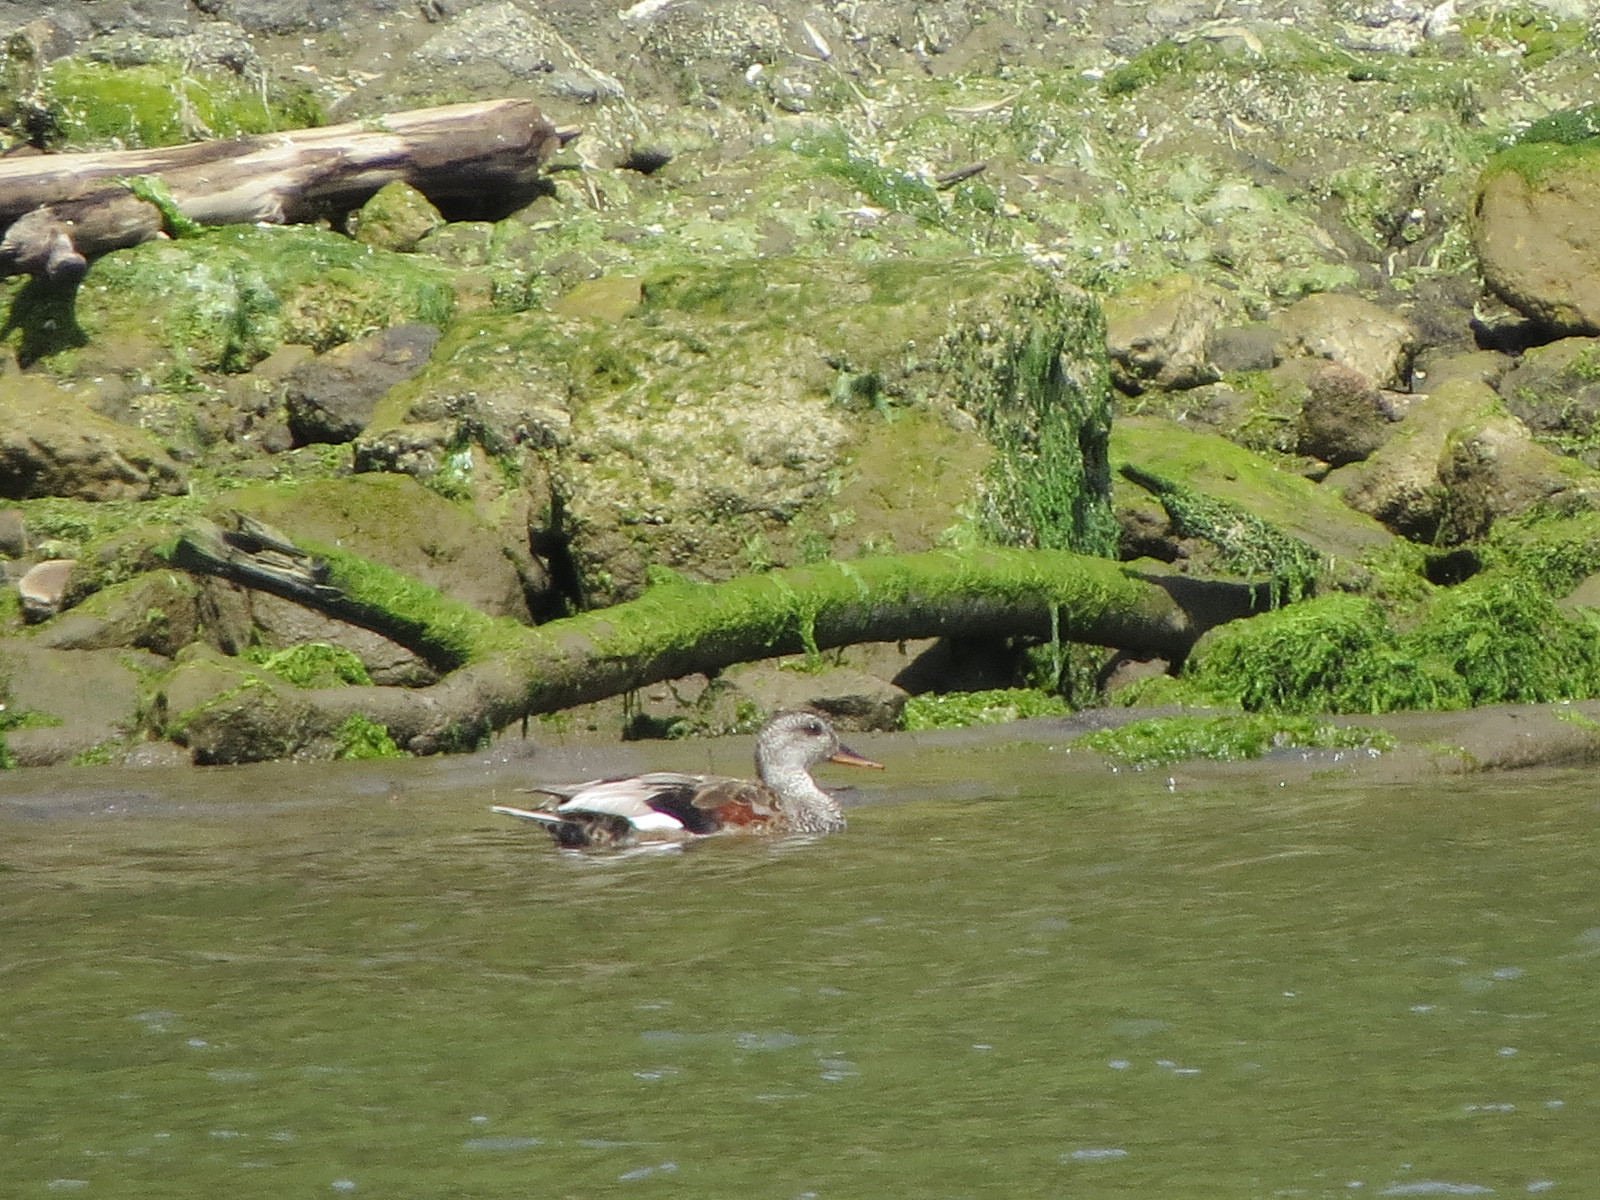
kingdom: Animalia
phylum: Chordata
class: Aves
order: Anseriformes
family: Anatidae
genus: Mareca
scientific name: Mareca strepera
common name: Gadwall
